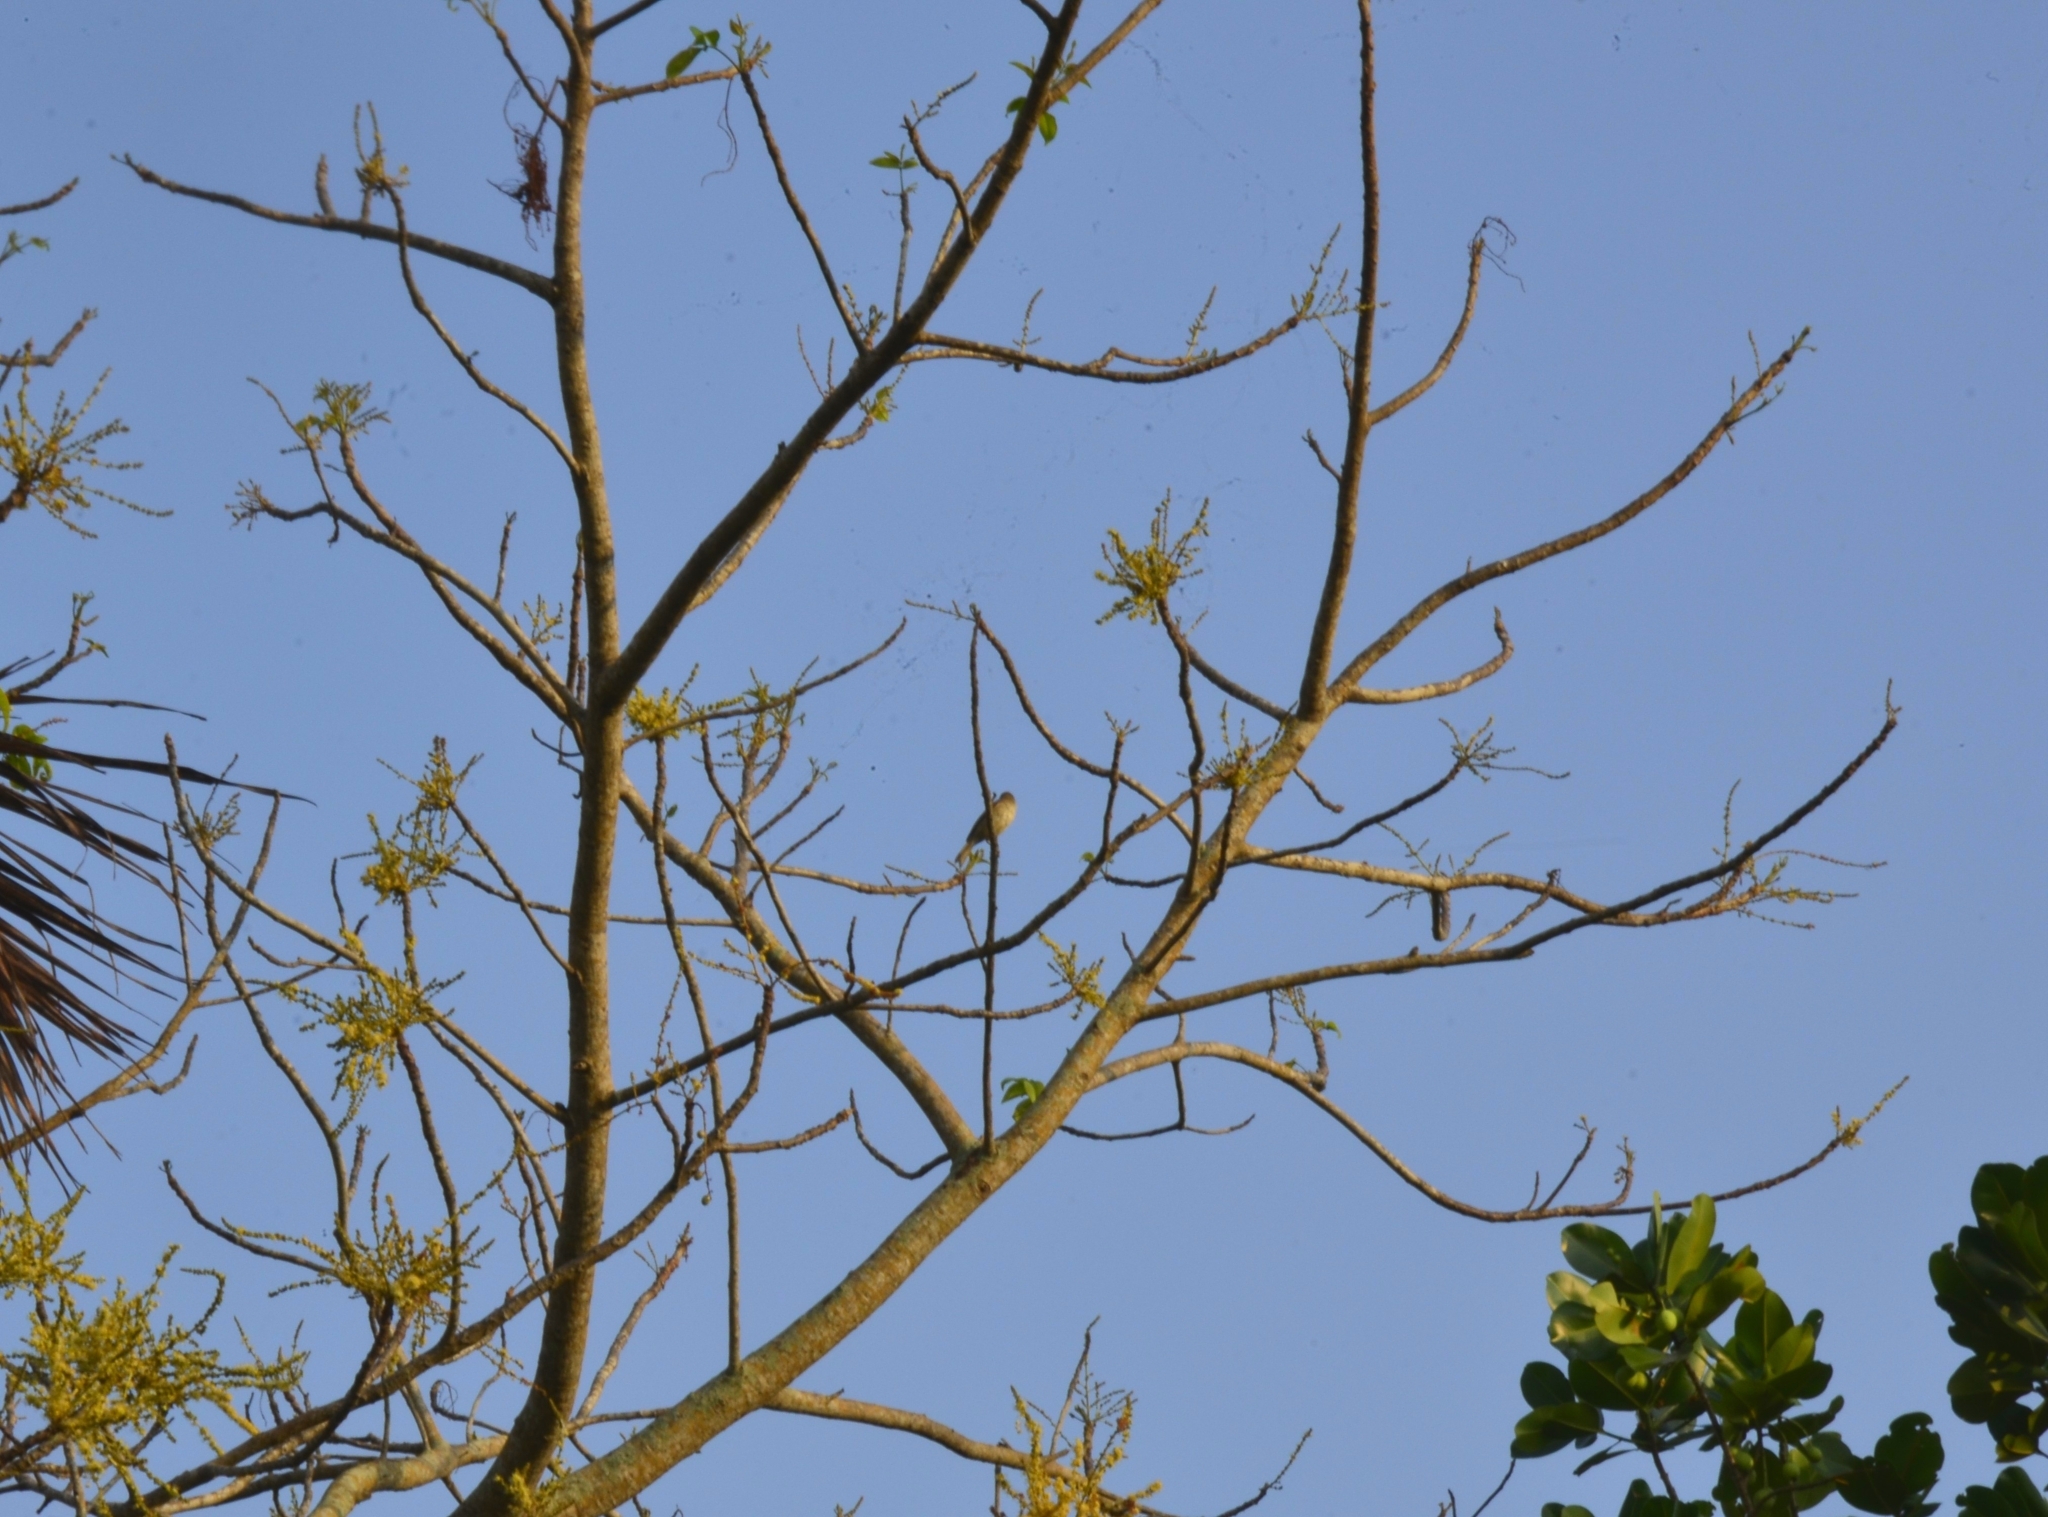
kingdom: Plantae
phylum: Tracheophyta
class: Magnoliopsida
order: Sapindales
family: Anacardiaceae
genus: Lannea
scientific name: Lannea coromandelica
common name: Indian ash tree
